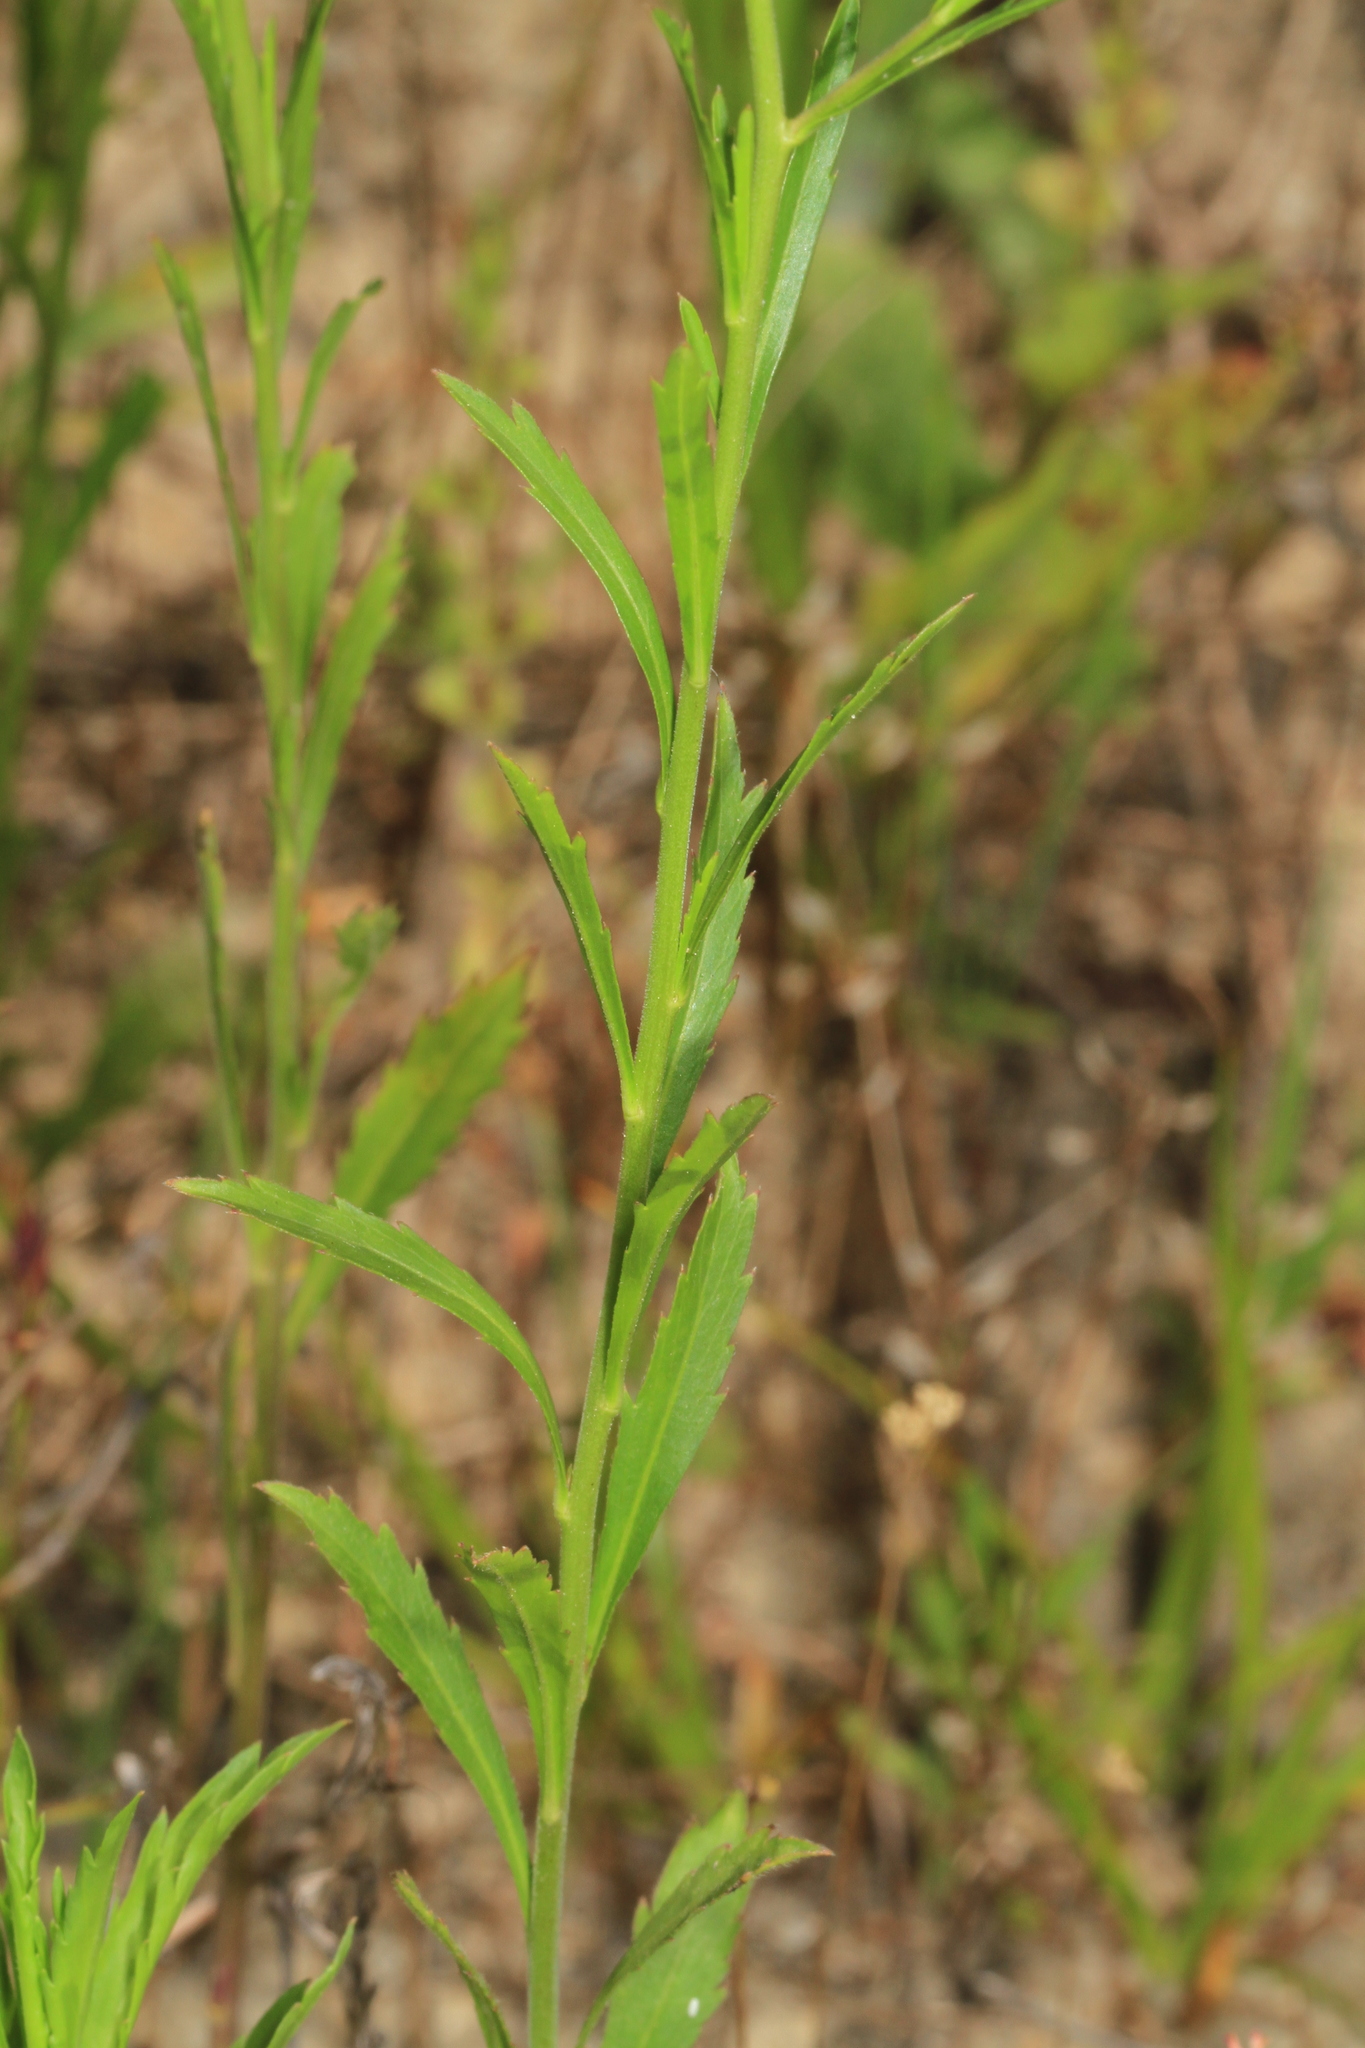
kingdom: Plantae
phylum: Tracheophyta
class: Magnoliopsida
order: Brassicales
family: Brassicaceae
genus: Lepidium
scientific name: Lepidium virginicum
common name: Least pepperwort
